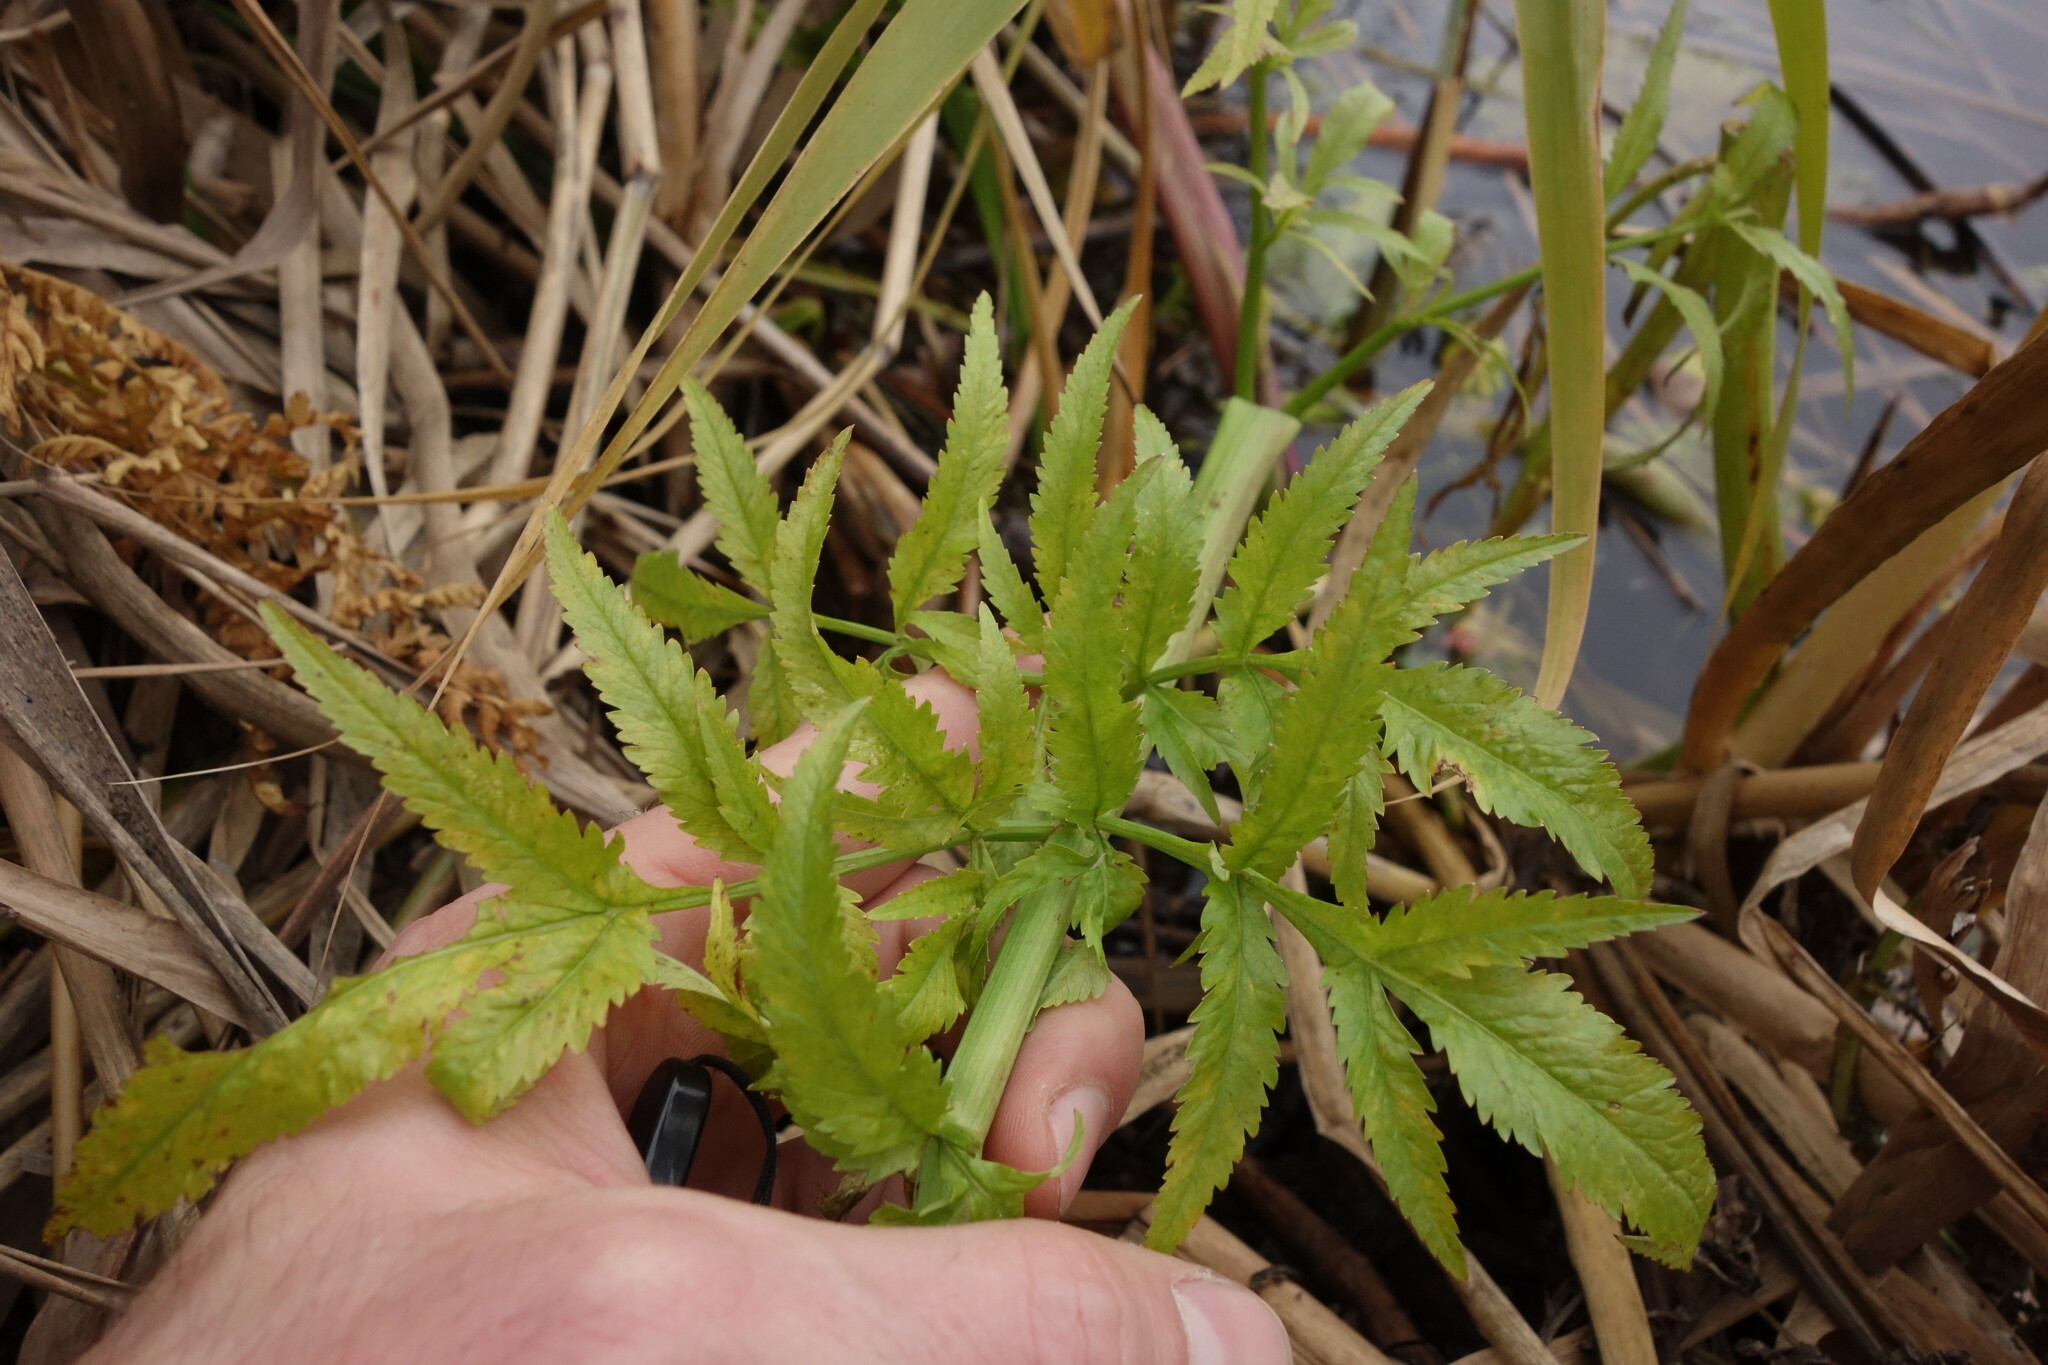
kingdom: Plantae
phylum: Tracheophyta
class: Magnoliopsida
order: Apiales
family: Apiaceae
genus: Cicuta
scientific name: Cicuta virosa
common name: Cowbane
